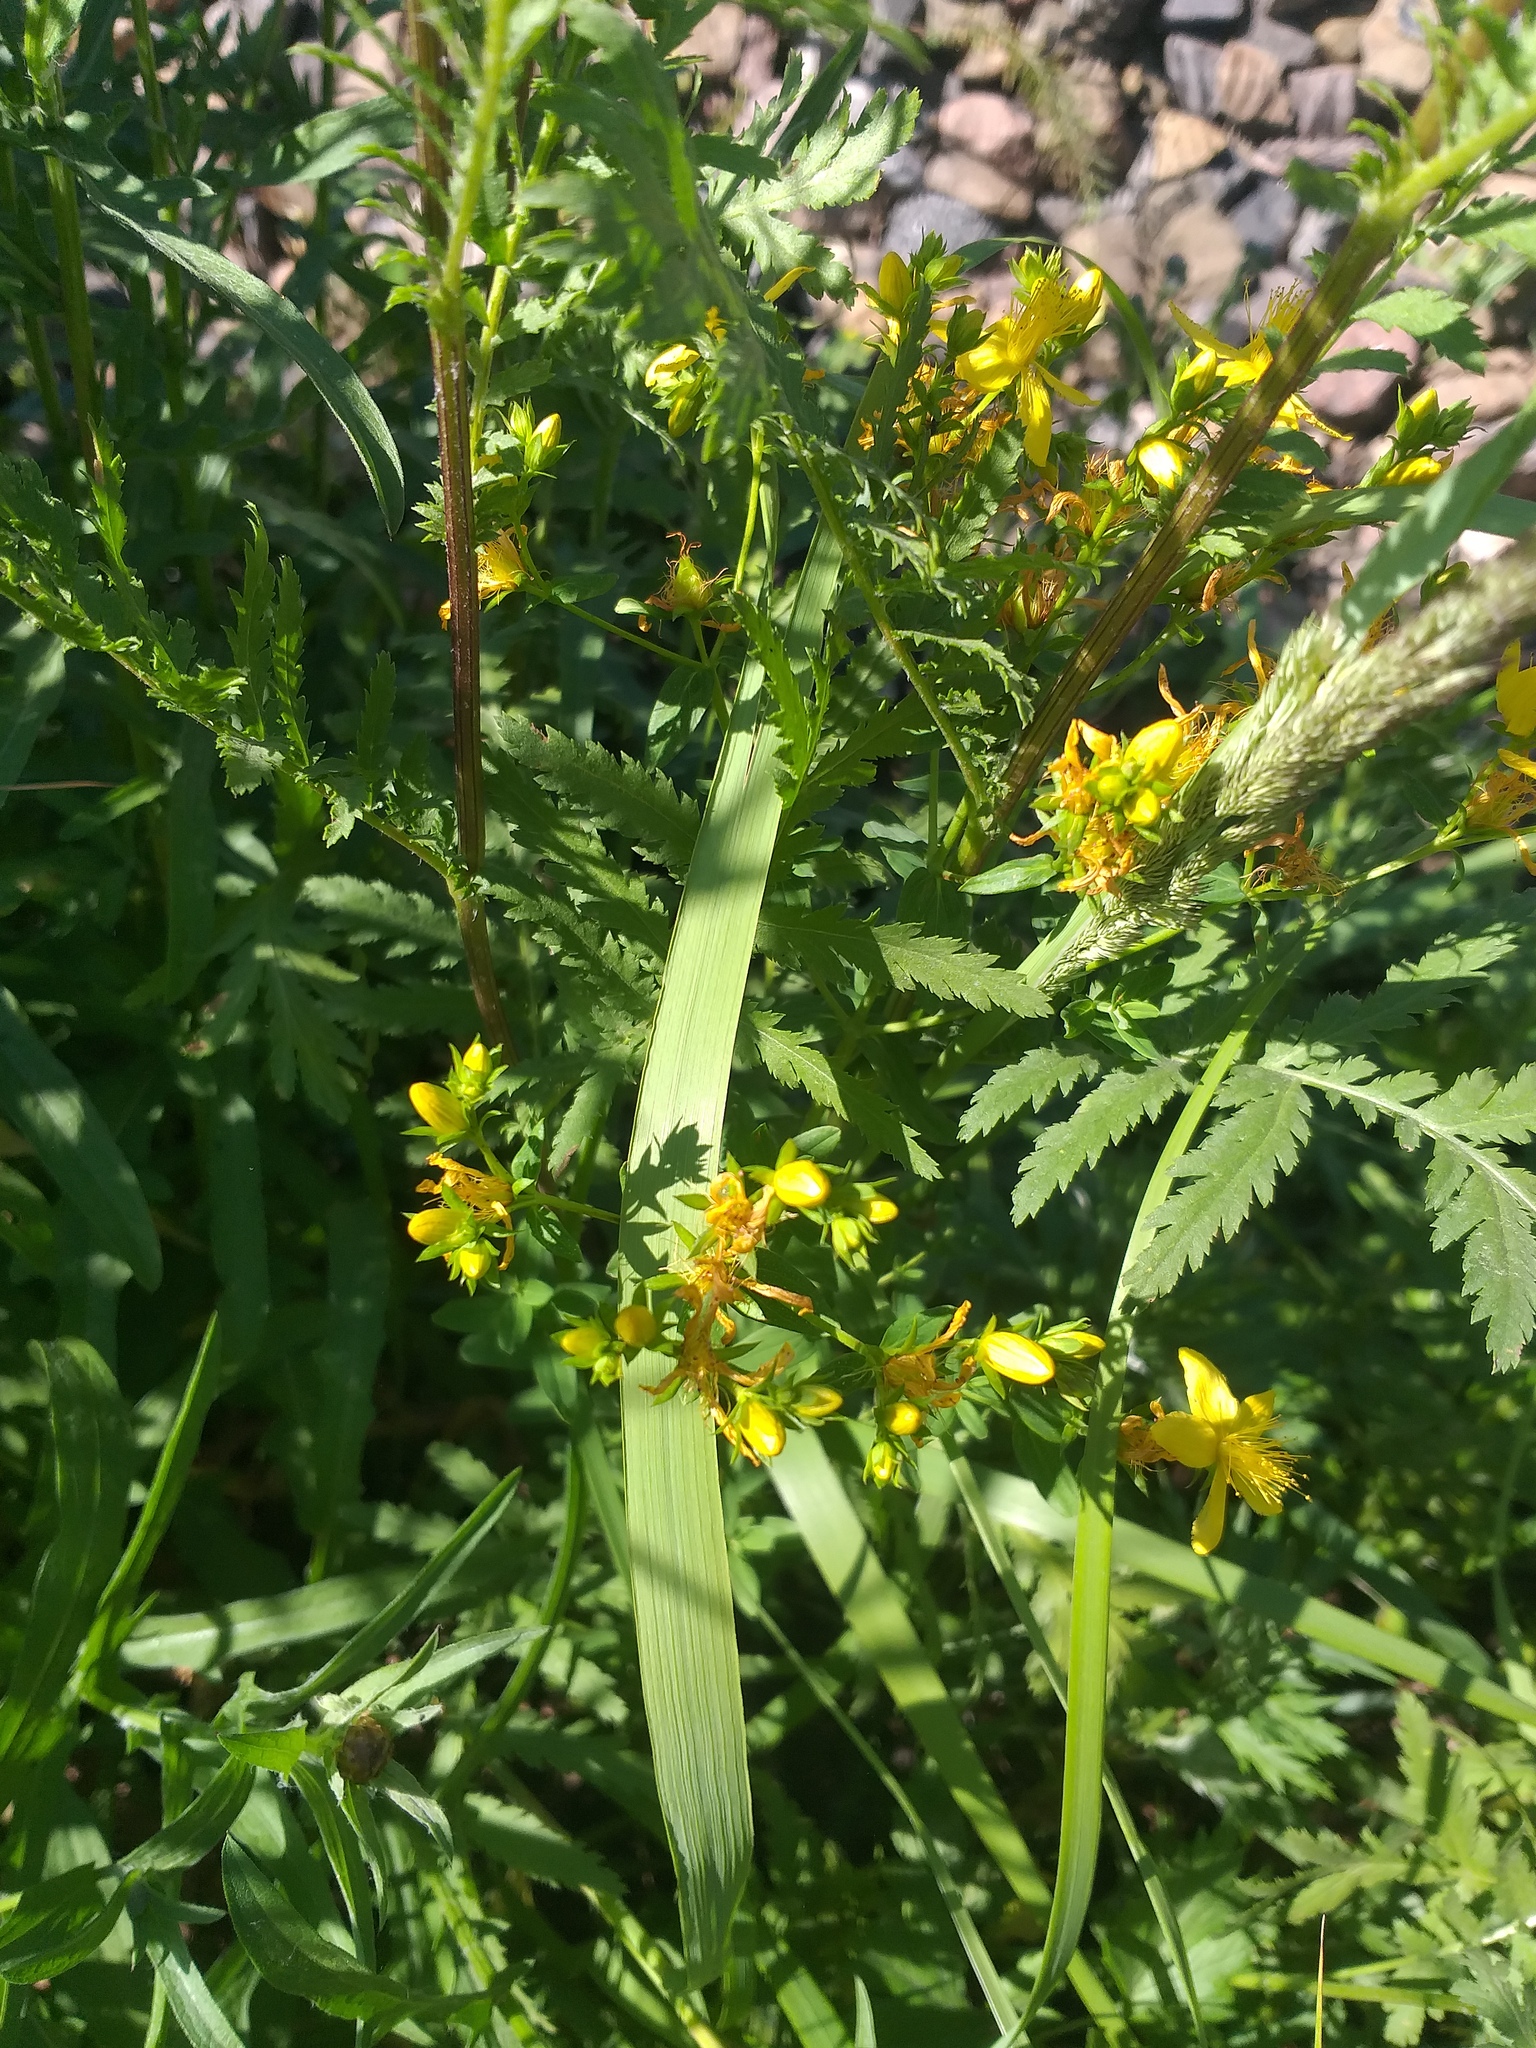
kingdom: Plantae
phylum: Tracheophyta
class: Magnoliopsida
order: Malpighiales
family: Hypericaceae
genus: Hypericum
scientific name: Hypericum perforatum
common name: Common st. johnswort
